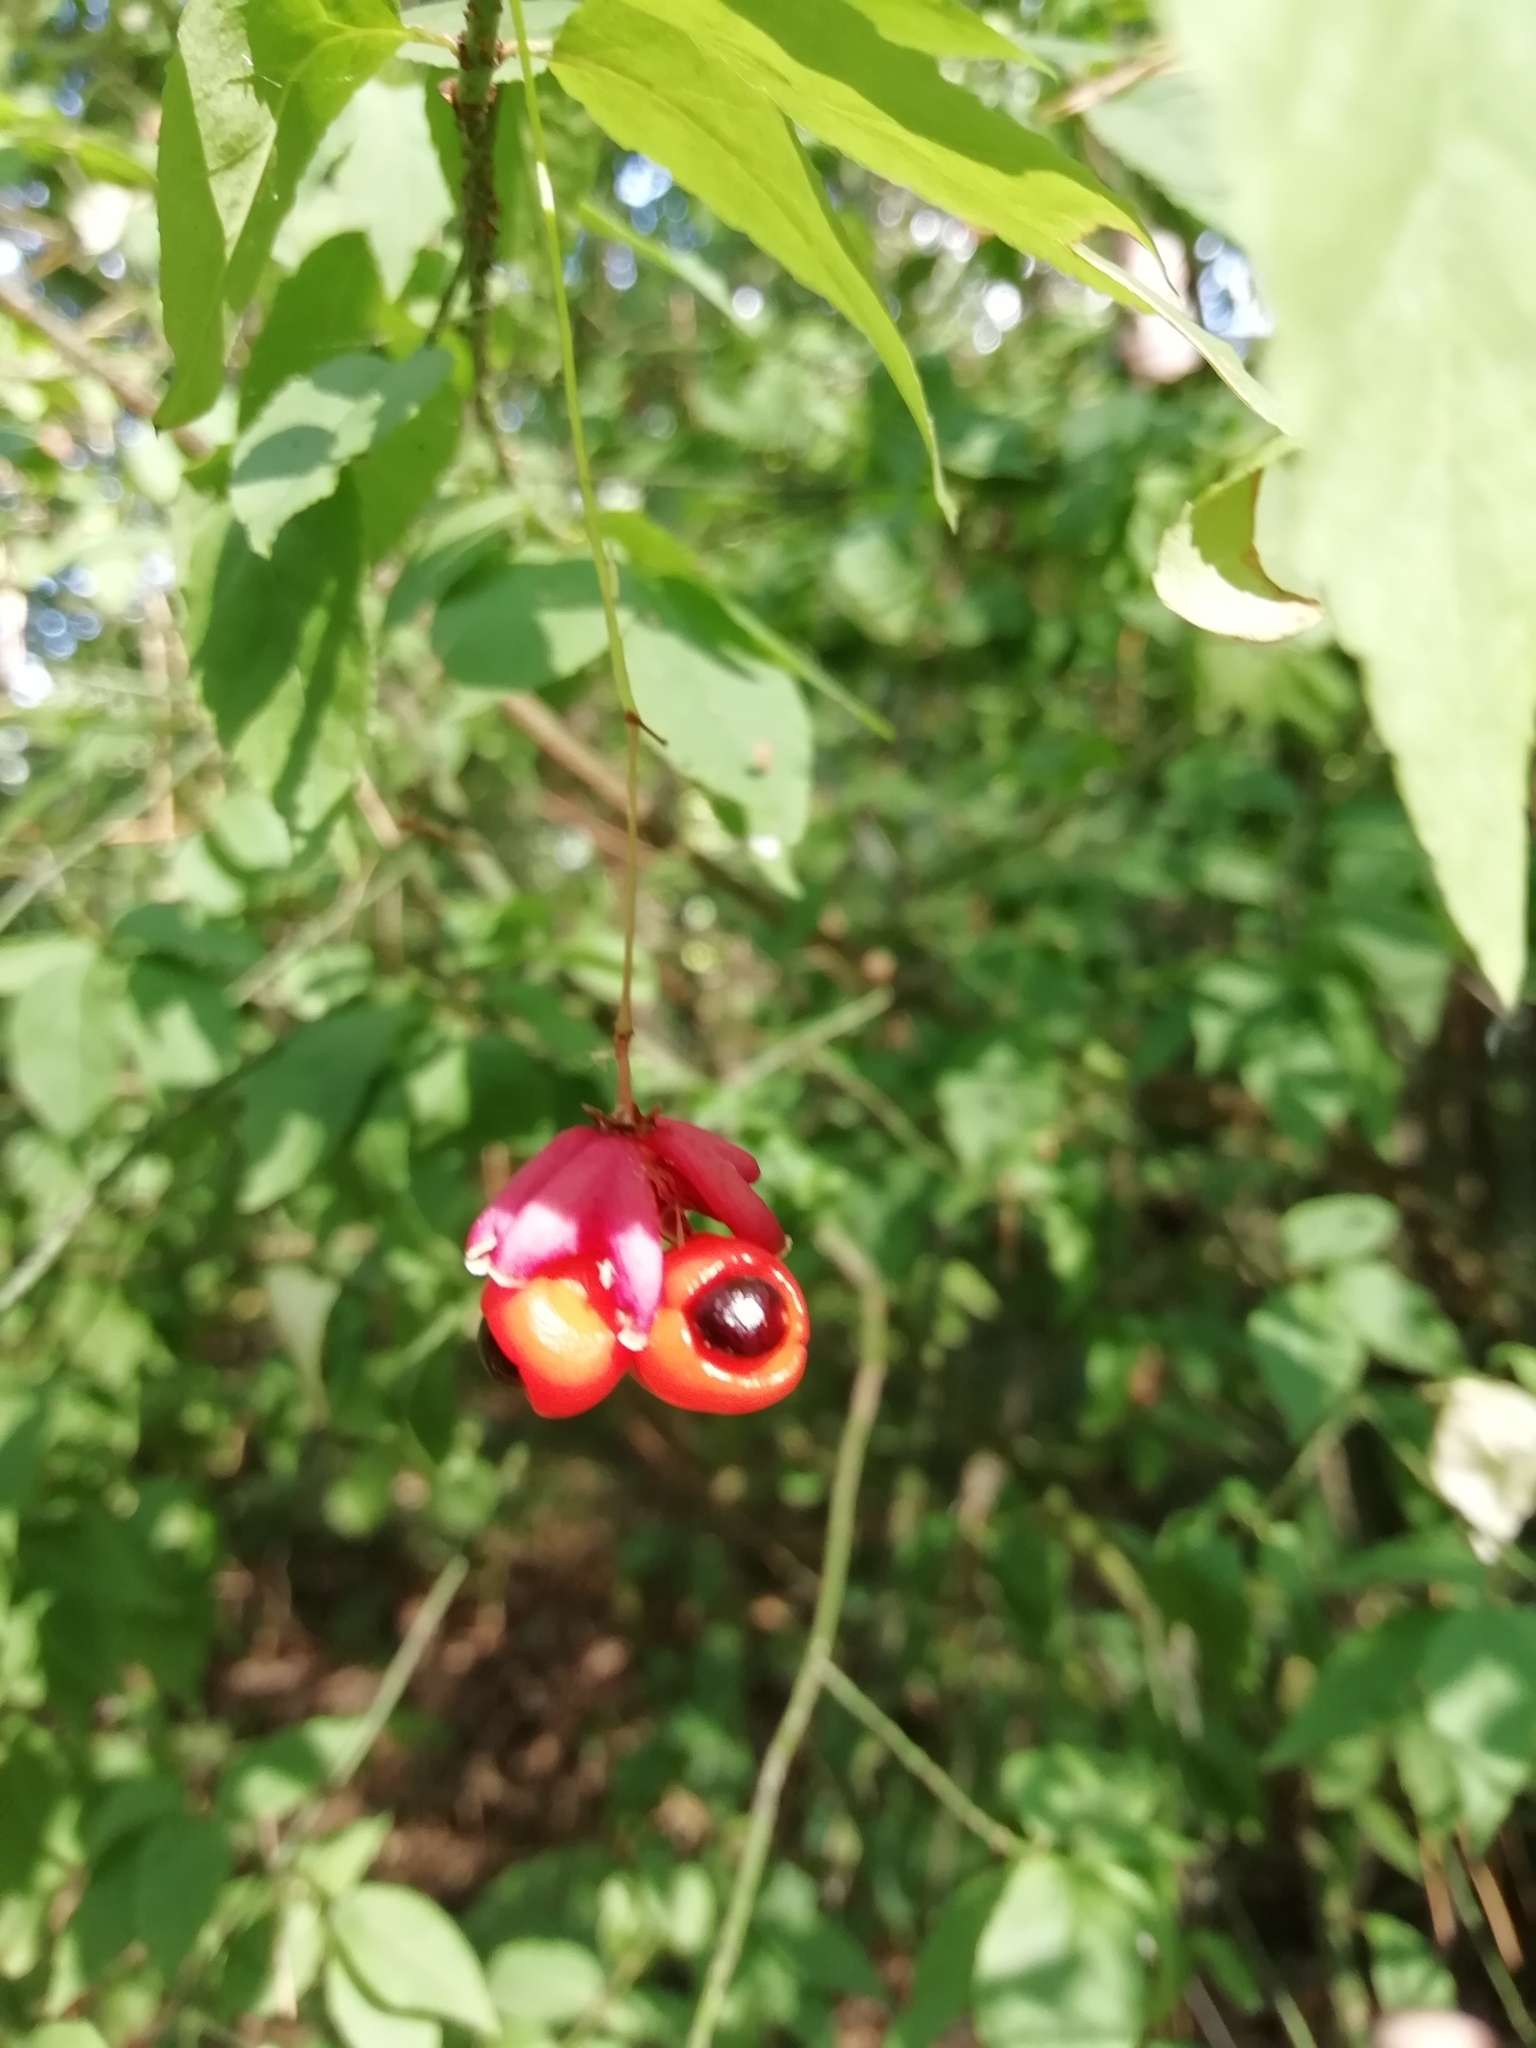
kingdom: Plantae
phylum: Tracheophyta
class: Magnoliopsida
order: Celastrales
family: Celastraceae
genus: Euonymus
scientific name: Euonymus verrucosus
